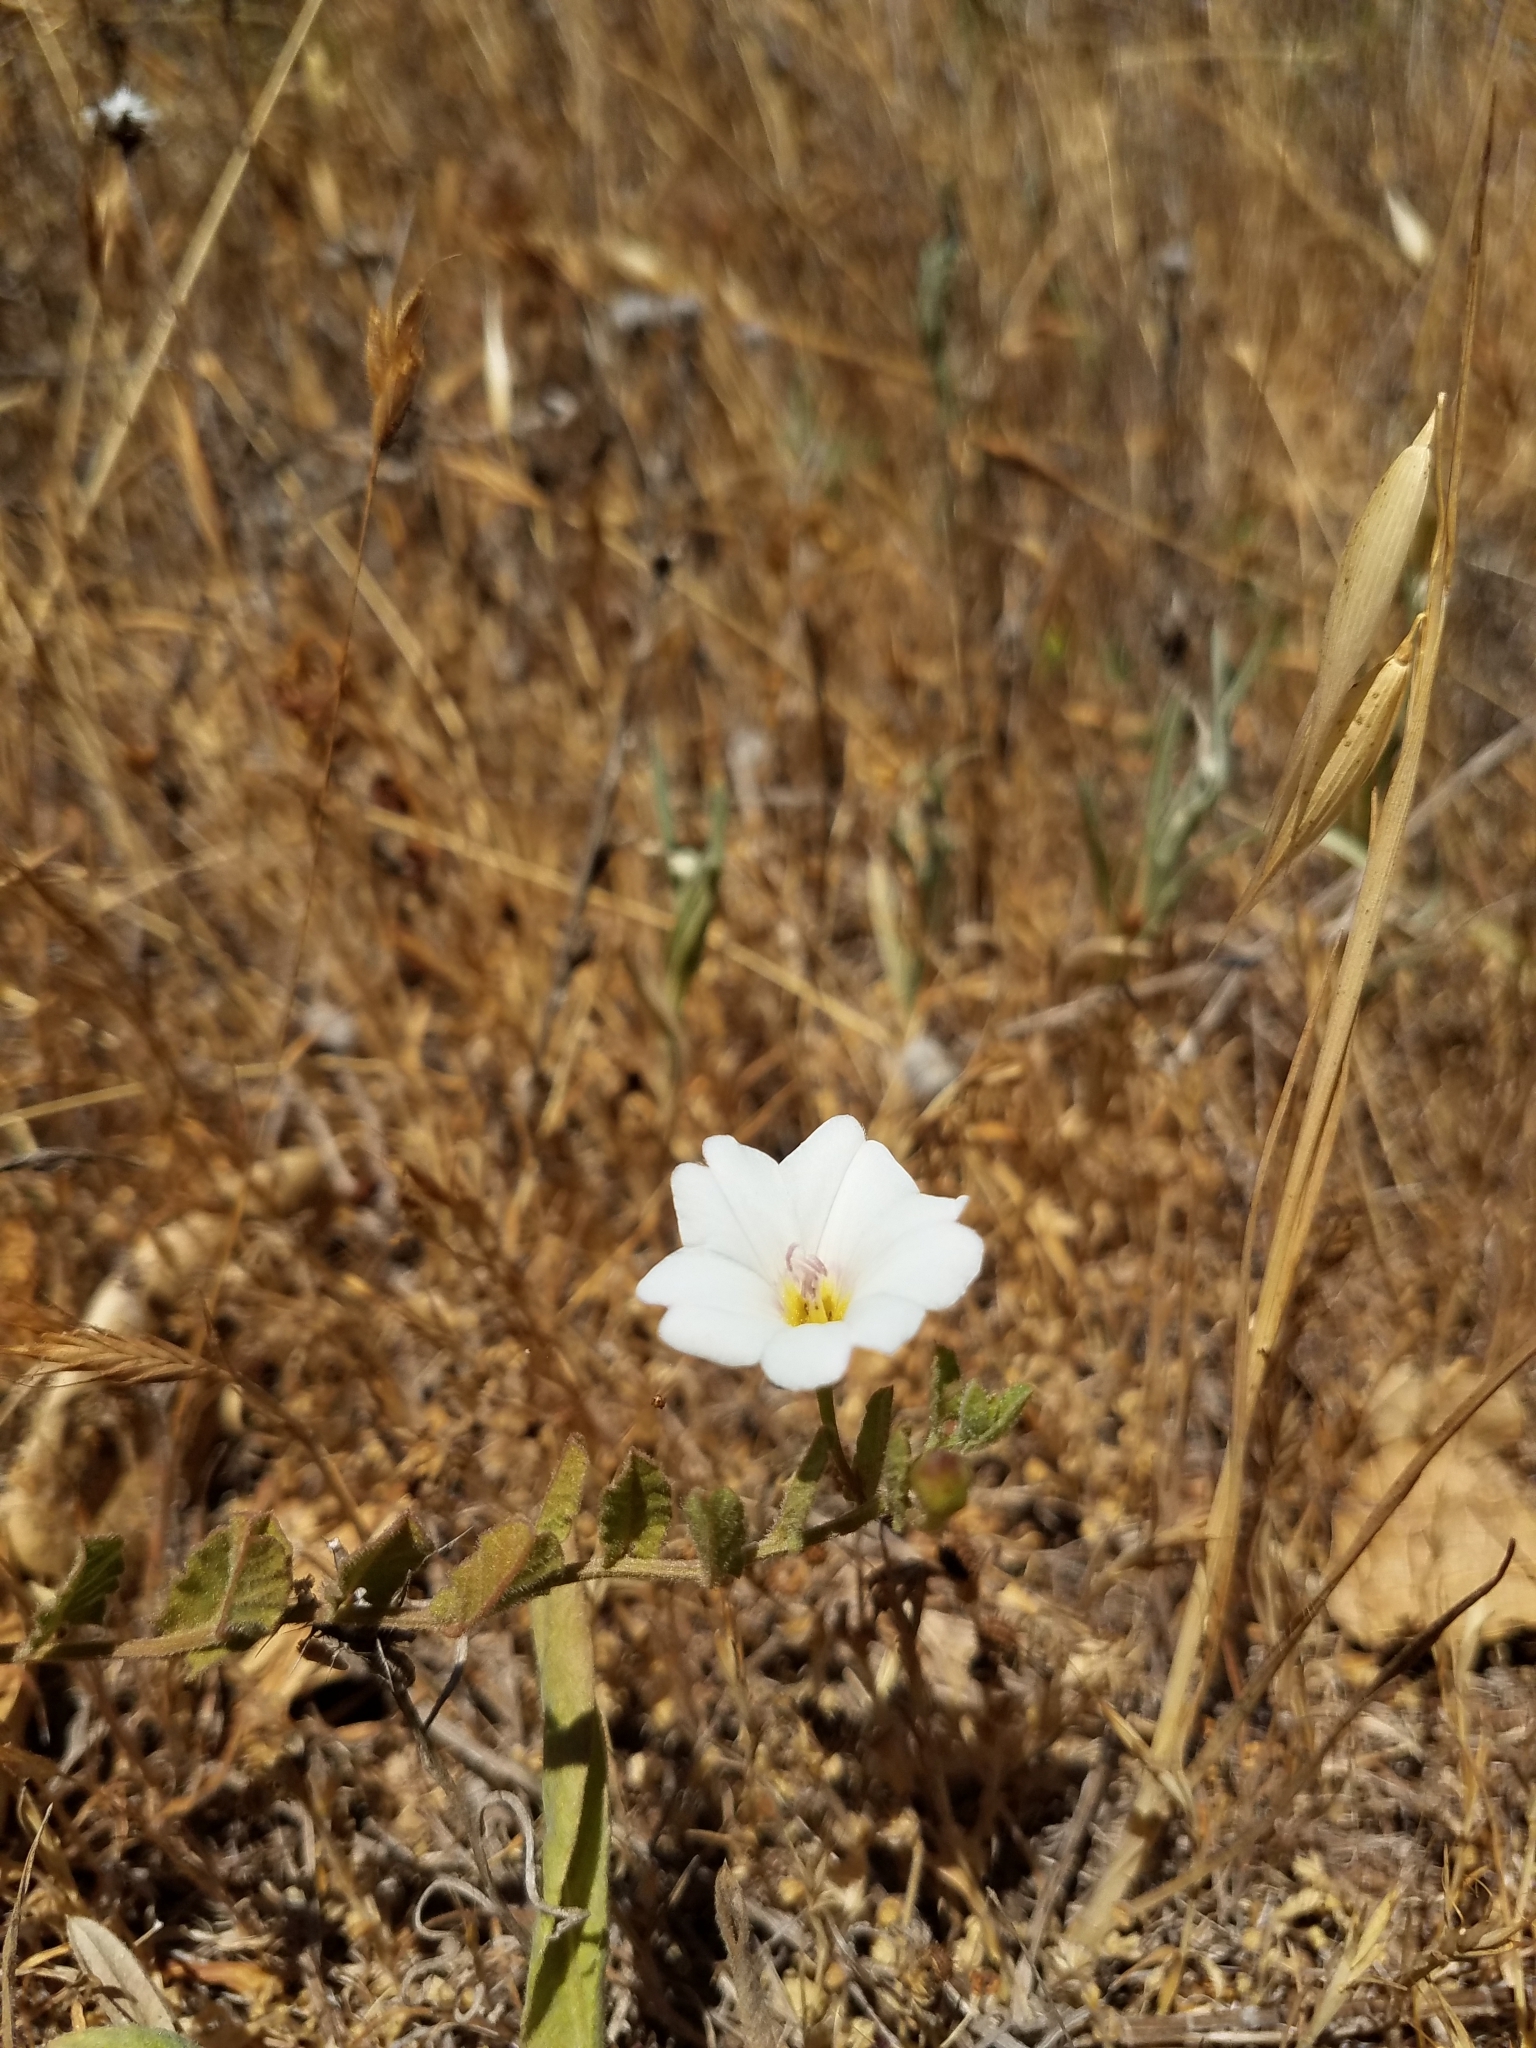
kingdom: Plantae
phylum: Tracheophyta
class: Magnoliopsida
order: Solanales
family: Convolvulaceae
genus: Convolvulus
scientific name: Convolvulus arvensis
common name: Field bindweed
